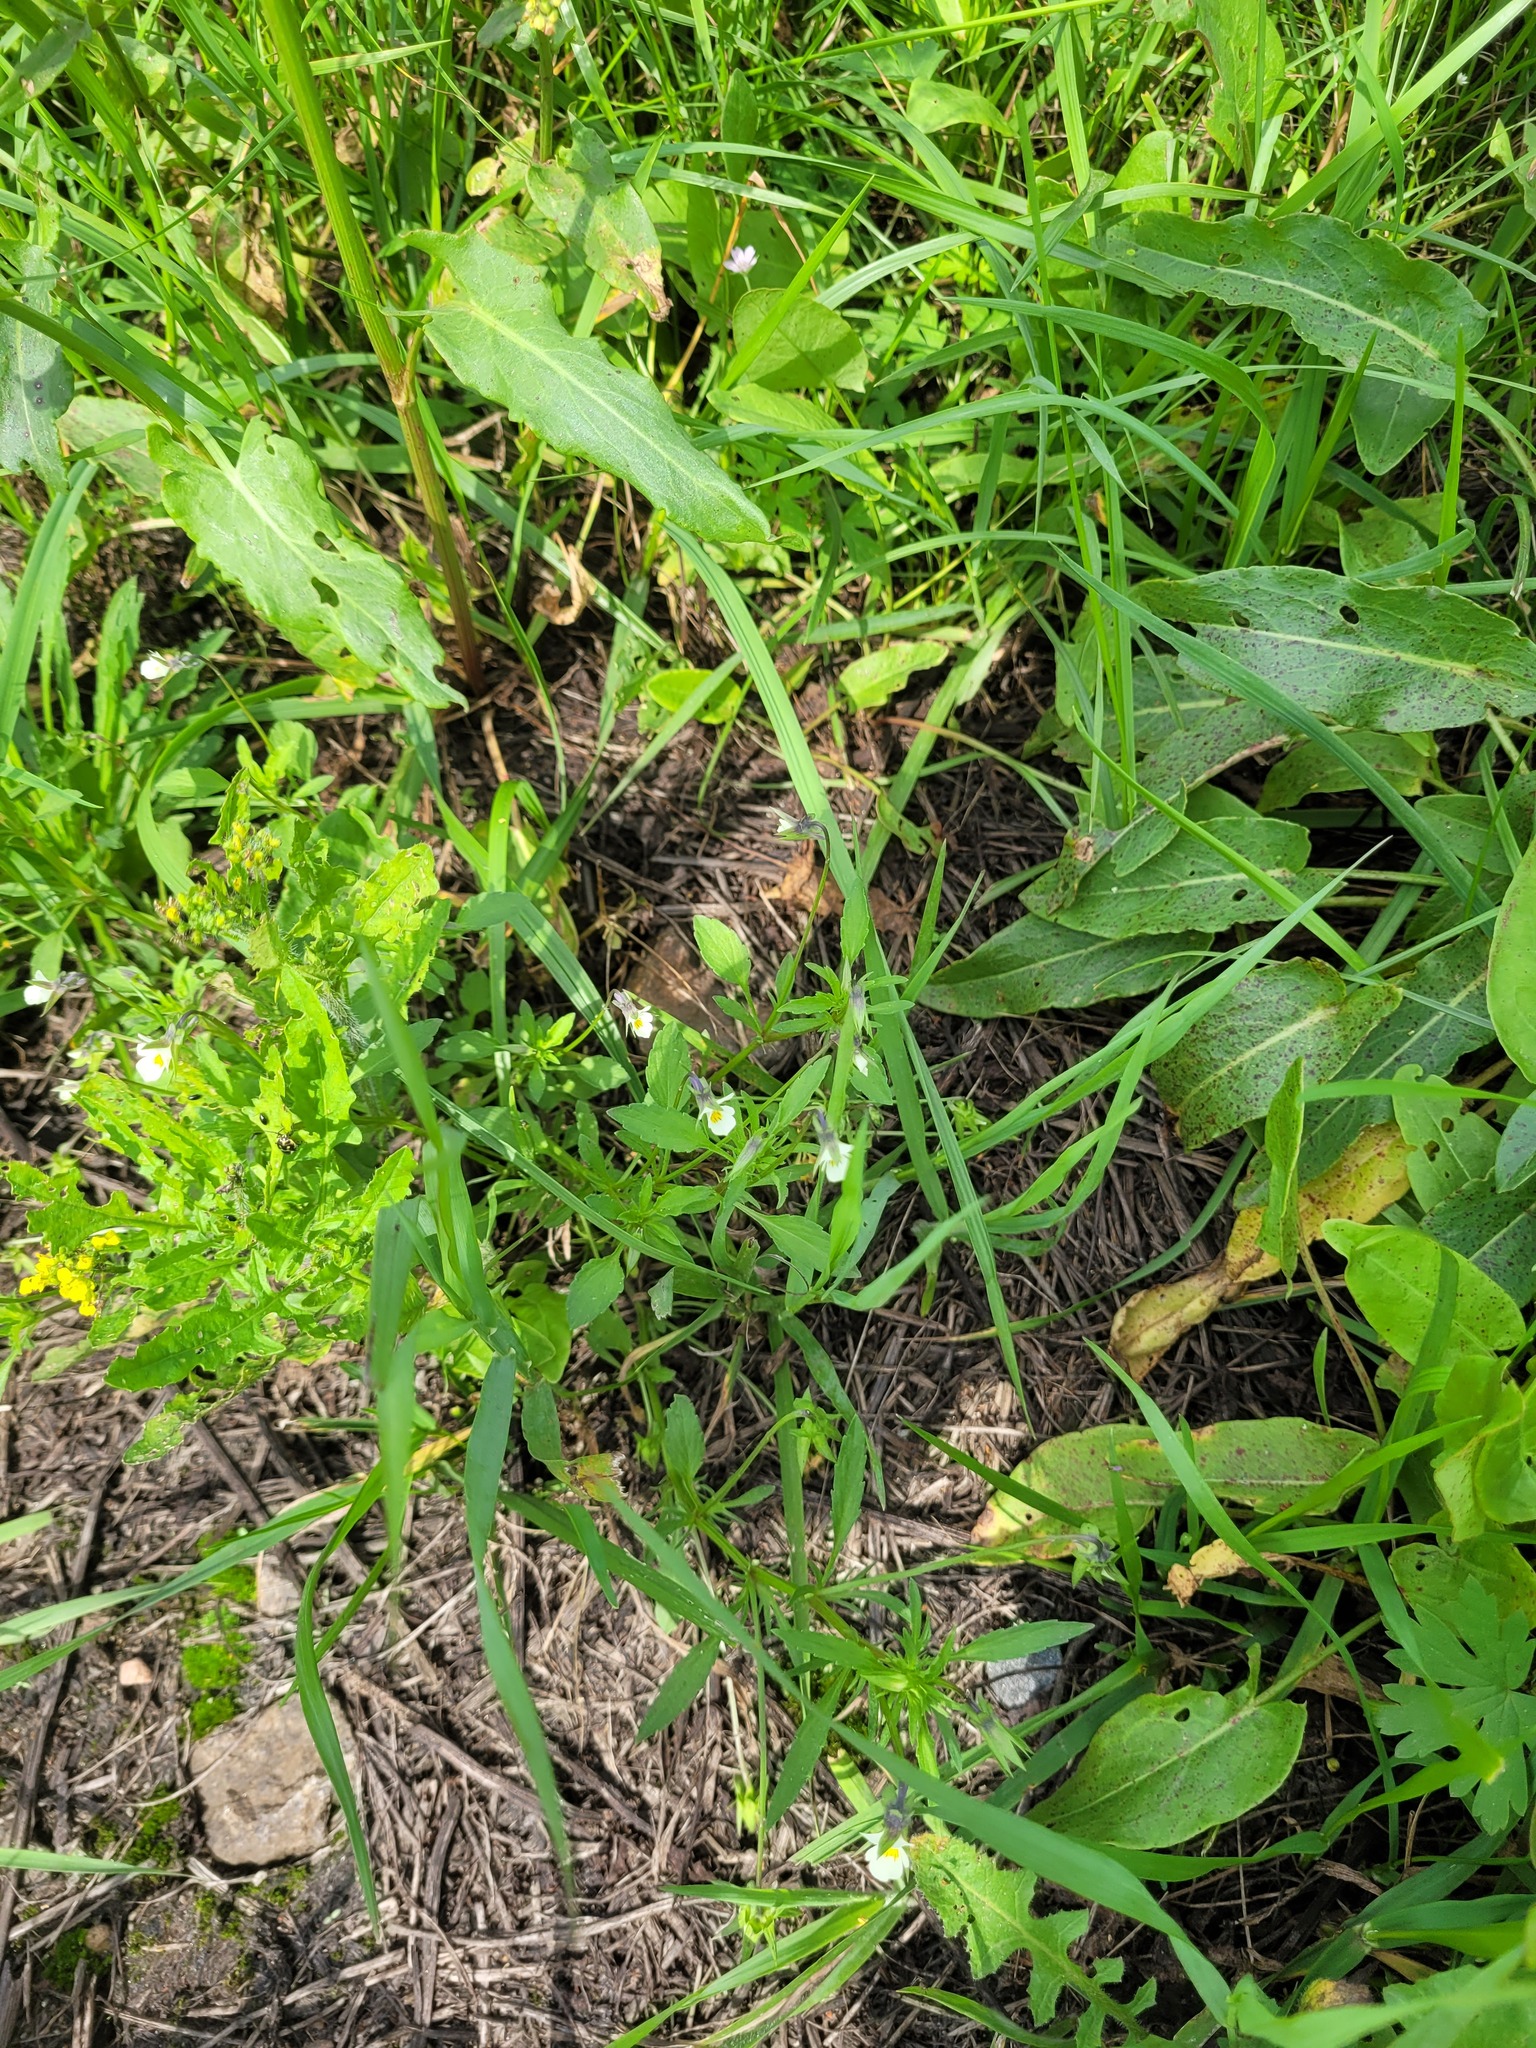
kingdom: Plantae
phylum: Tracheophyta
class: Magnoliopsida
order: Malpighiales
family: Violaceae
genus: Viola
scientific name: Viola arvensis
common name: Field pansy
